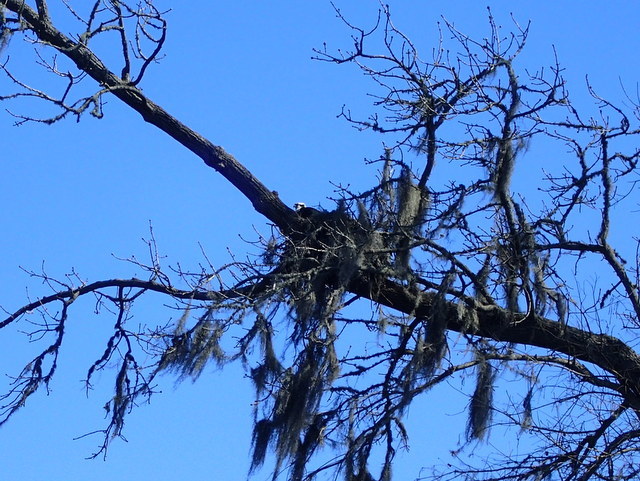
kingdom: Animalia
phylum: Chordata
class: Aves
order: Accipitriformes
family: Pandionidae
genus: Pandion
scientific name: Pandion haliaetus
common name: Osprey
